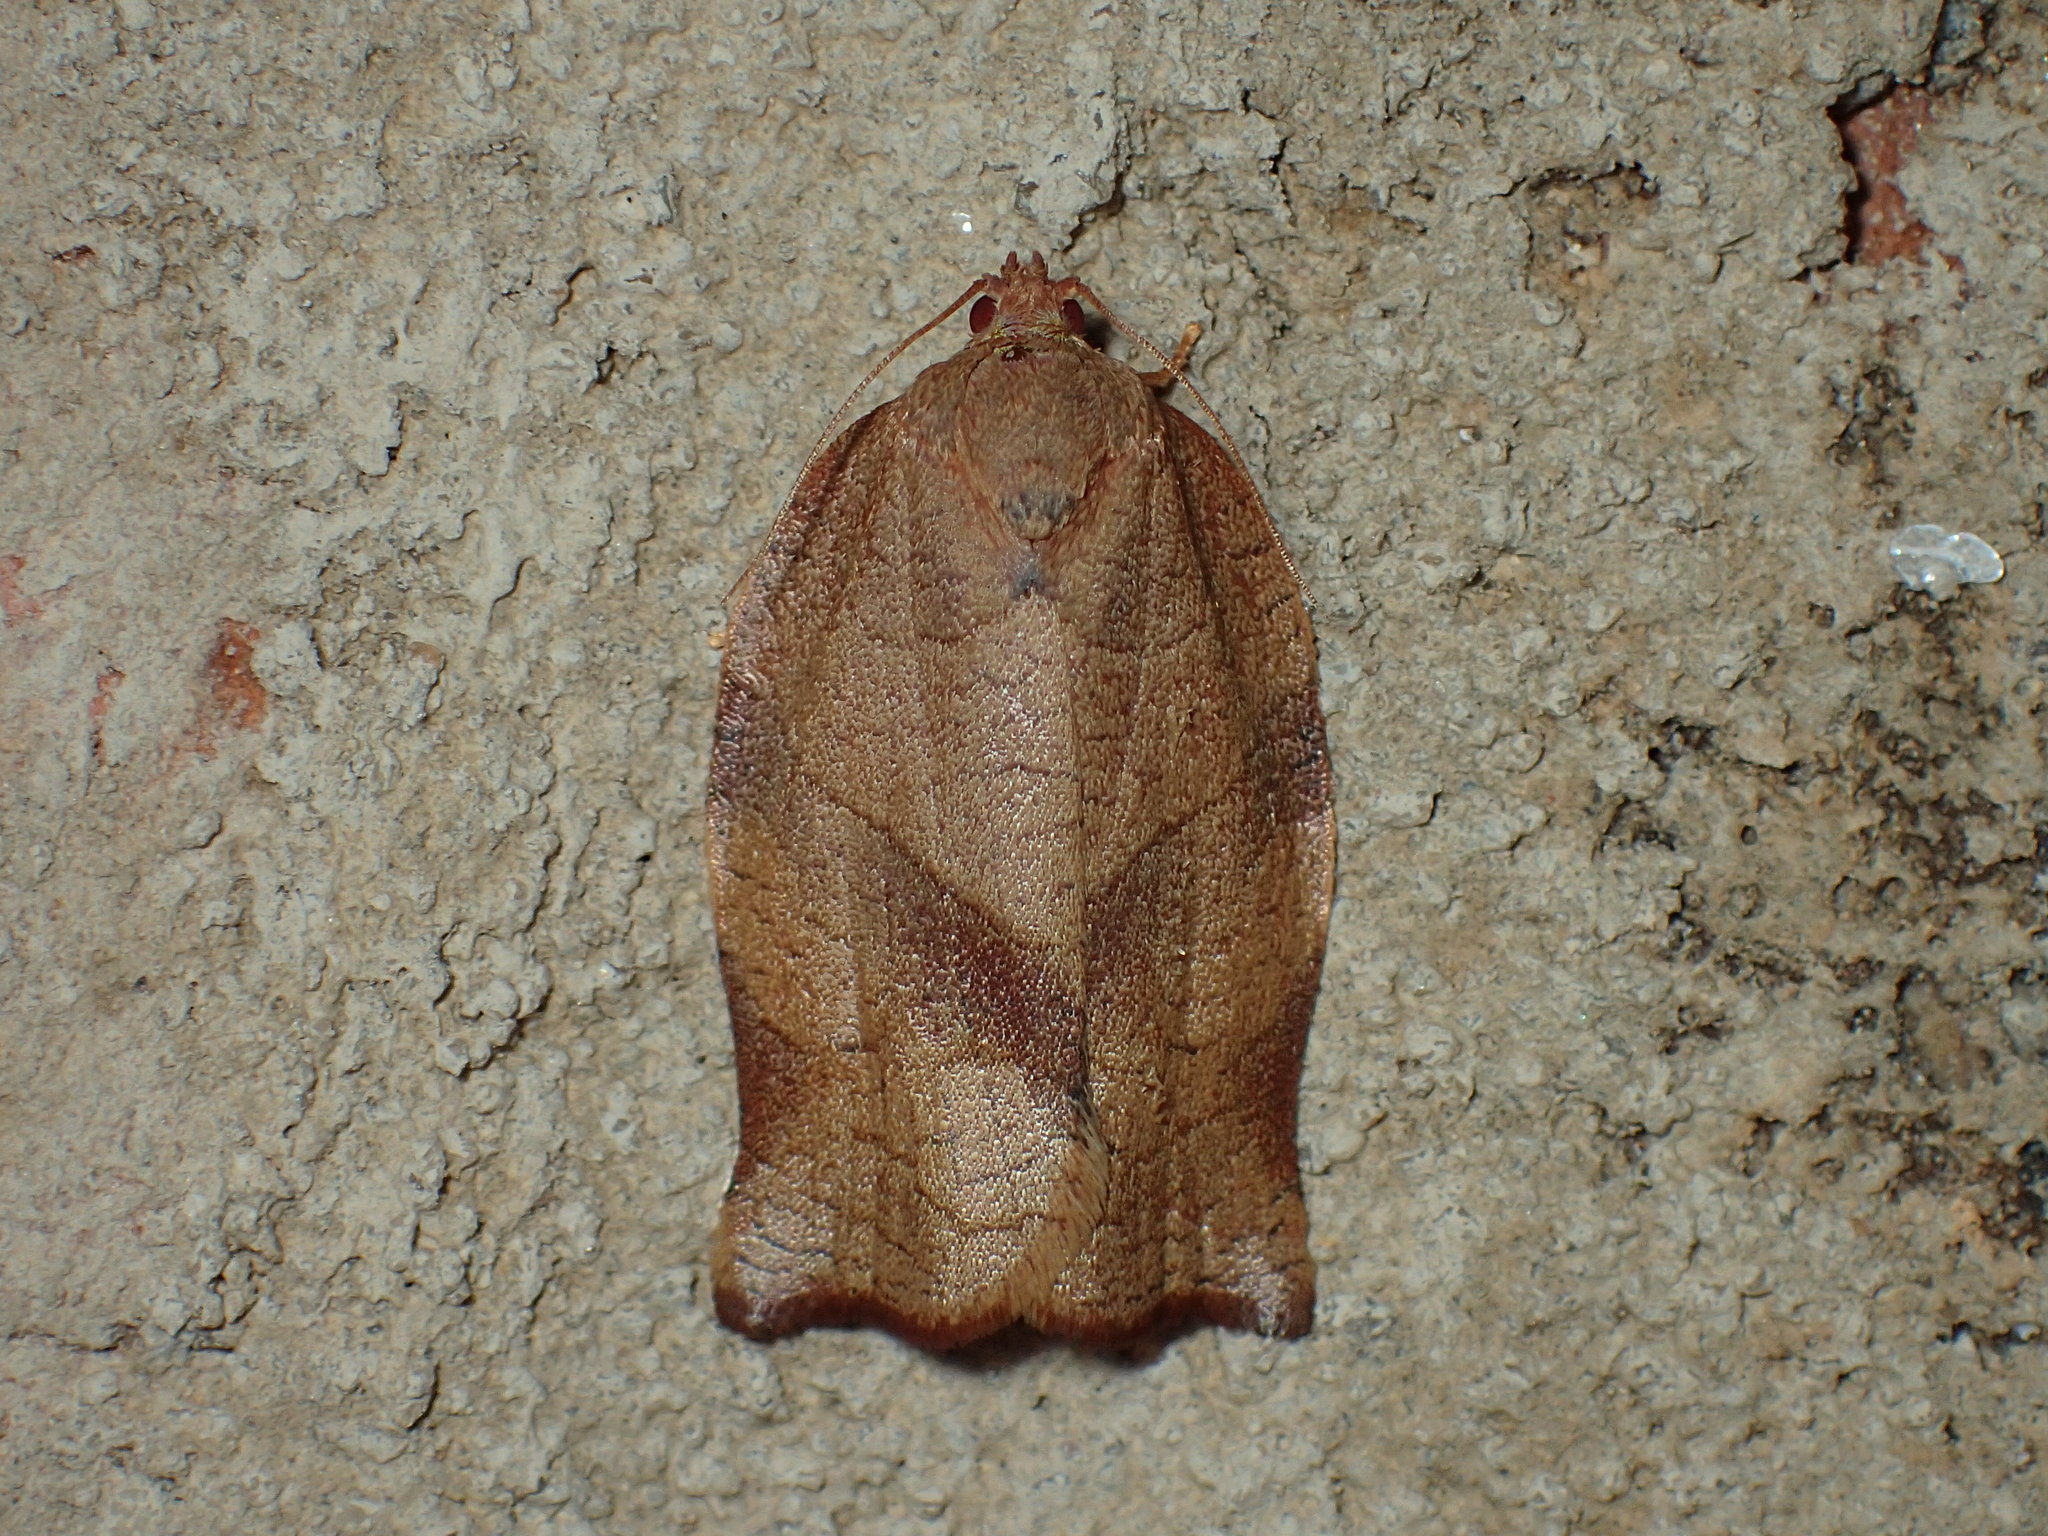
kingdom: Animalia
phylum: Arthropoda
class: Insecta
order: Lepidoptera
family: Tortricidae
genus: Choristoneura
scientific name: Choristoneura rosaceana
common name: Oblique-banded leafroller moth
